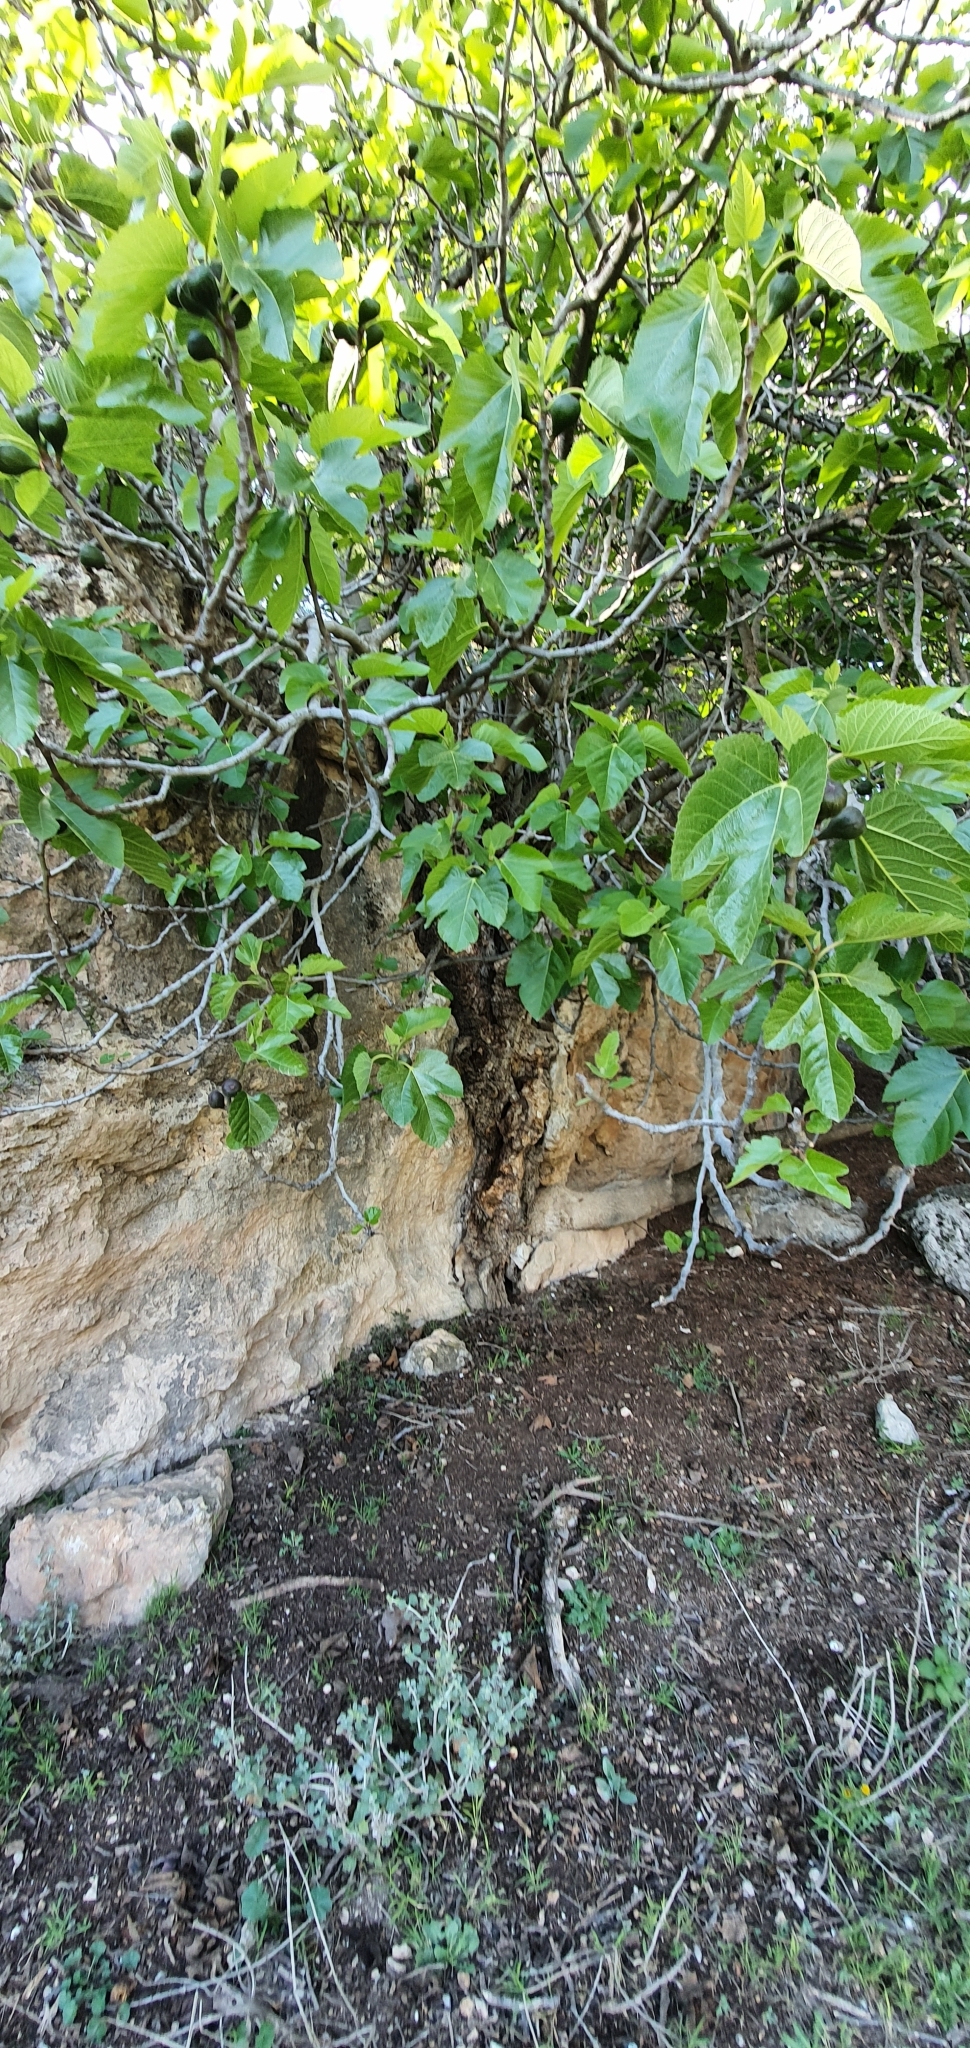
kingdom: Plantae
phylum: Tracheophyta
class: Magnoliopsida
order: Rosales
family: Moraceae
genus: Ficus
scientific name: Ficus carica
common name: Fig
